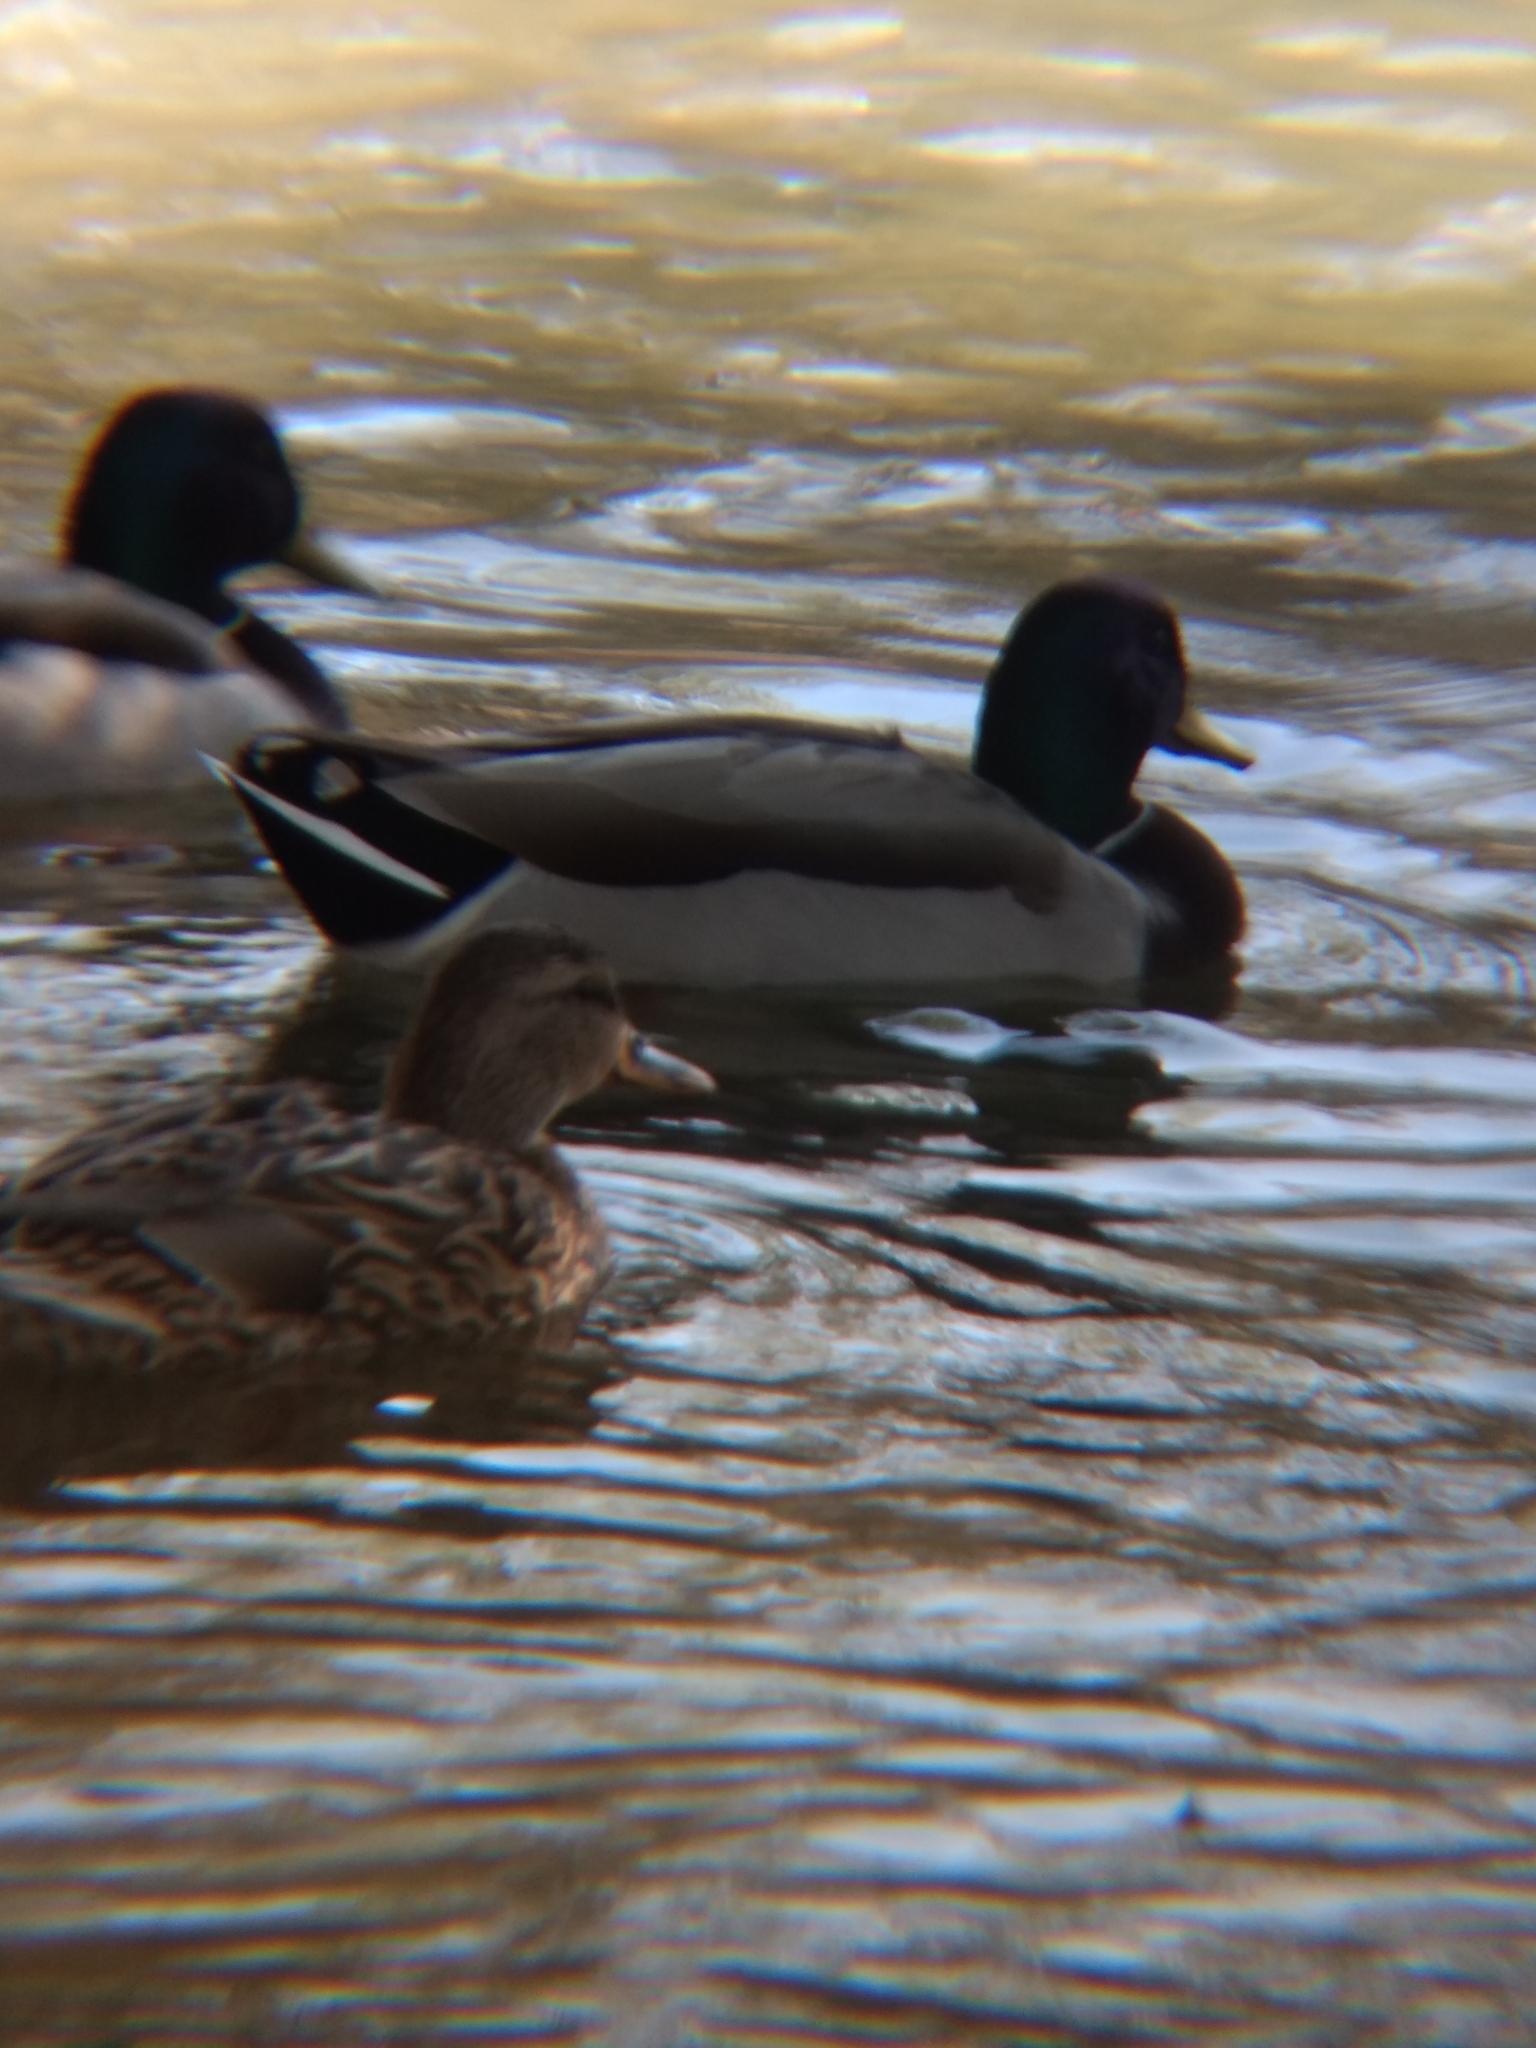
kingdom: Animalia
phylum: Chordata
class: Aves
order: Anseriformes
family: Anatidae
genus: Anas
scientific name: Anas platyrhynchos
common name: Mallard
